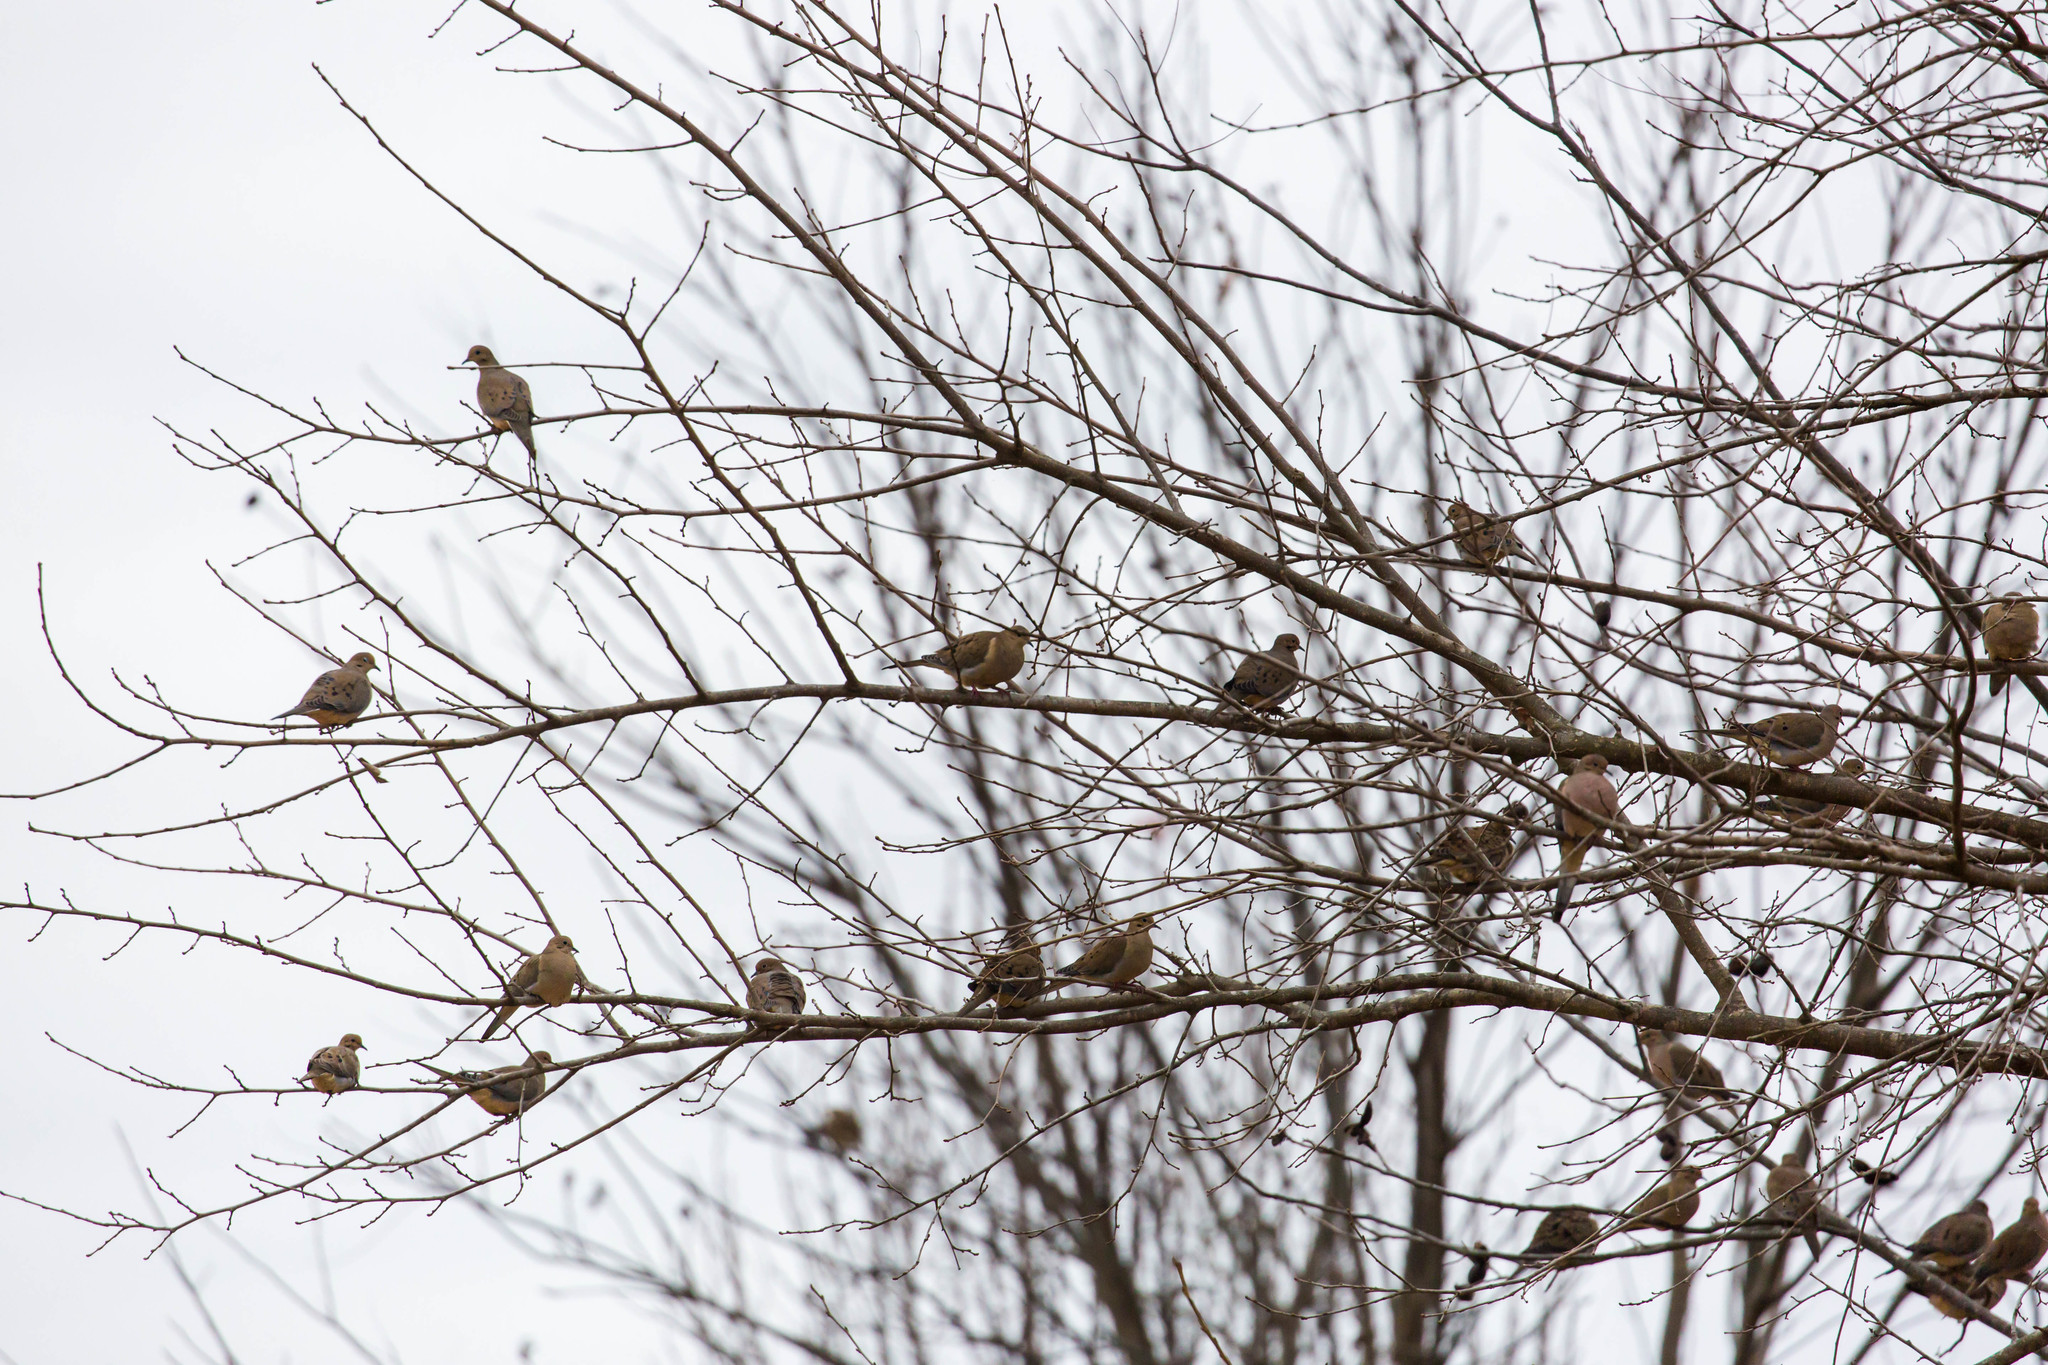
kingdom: Animalia
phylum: Chordata
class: Aves
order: Columbiformes
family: Columbidae
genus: Zenaida
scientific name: Zenaida macroura
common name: Mourning dove
